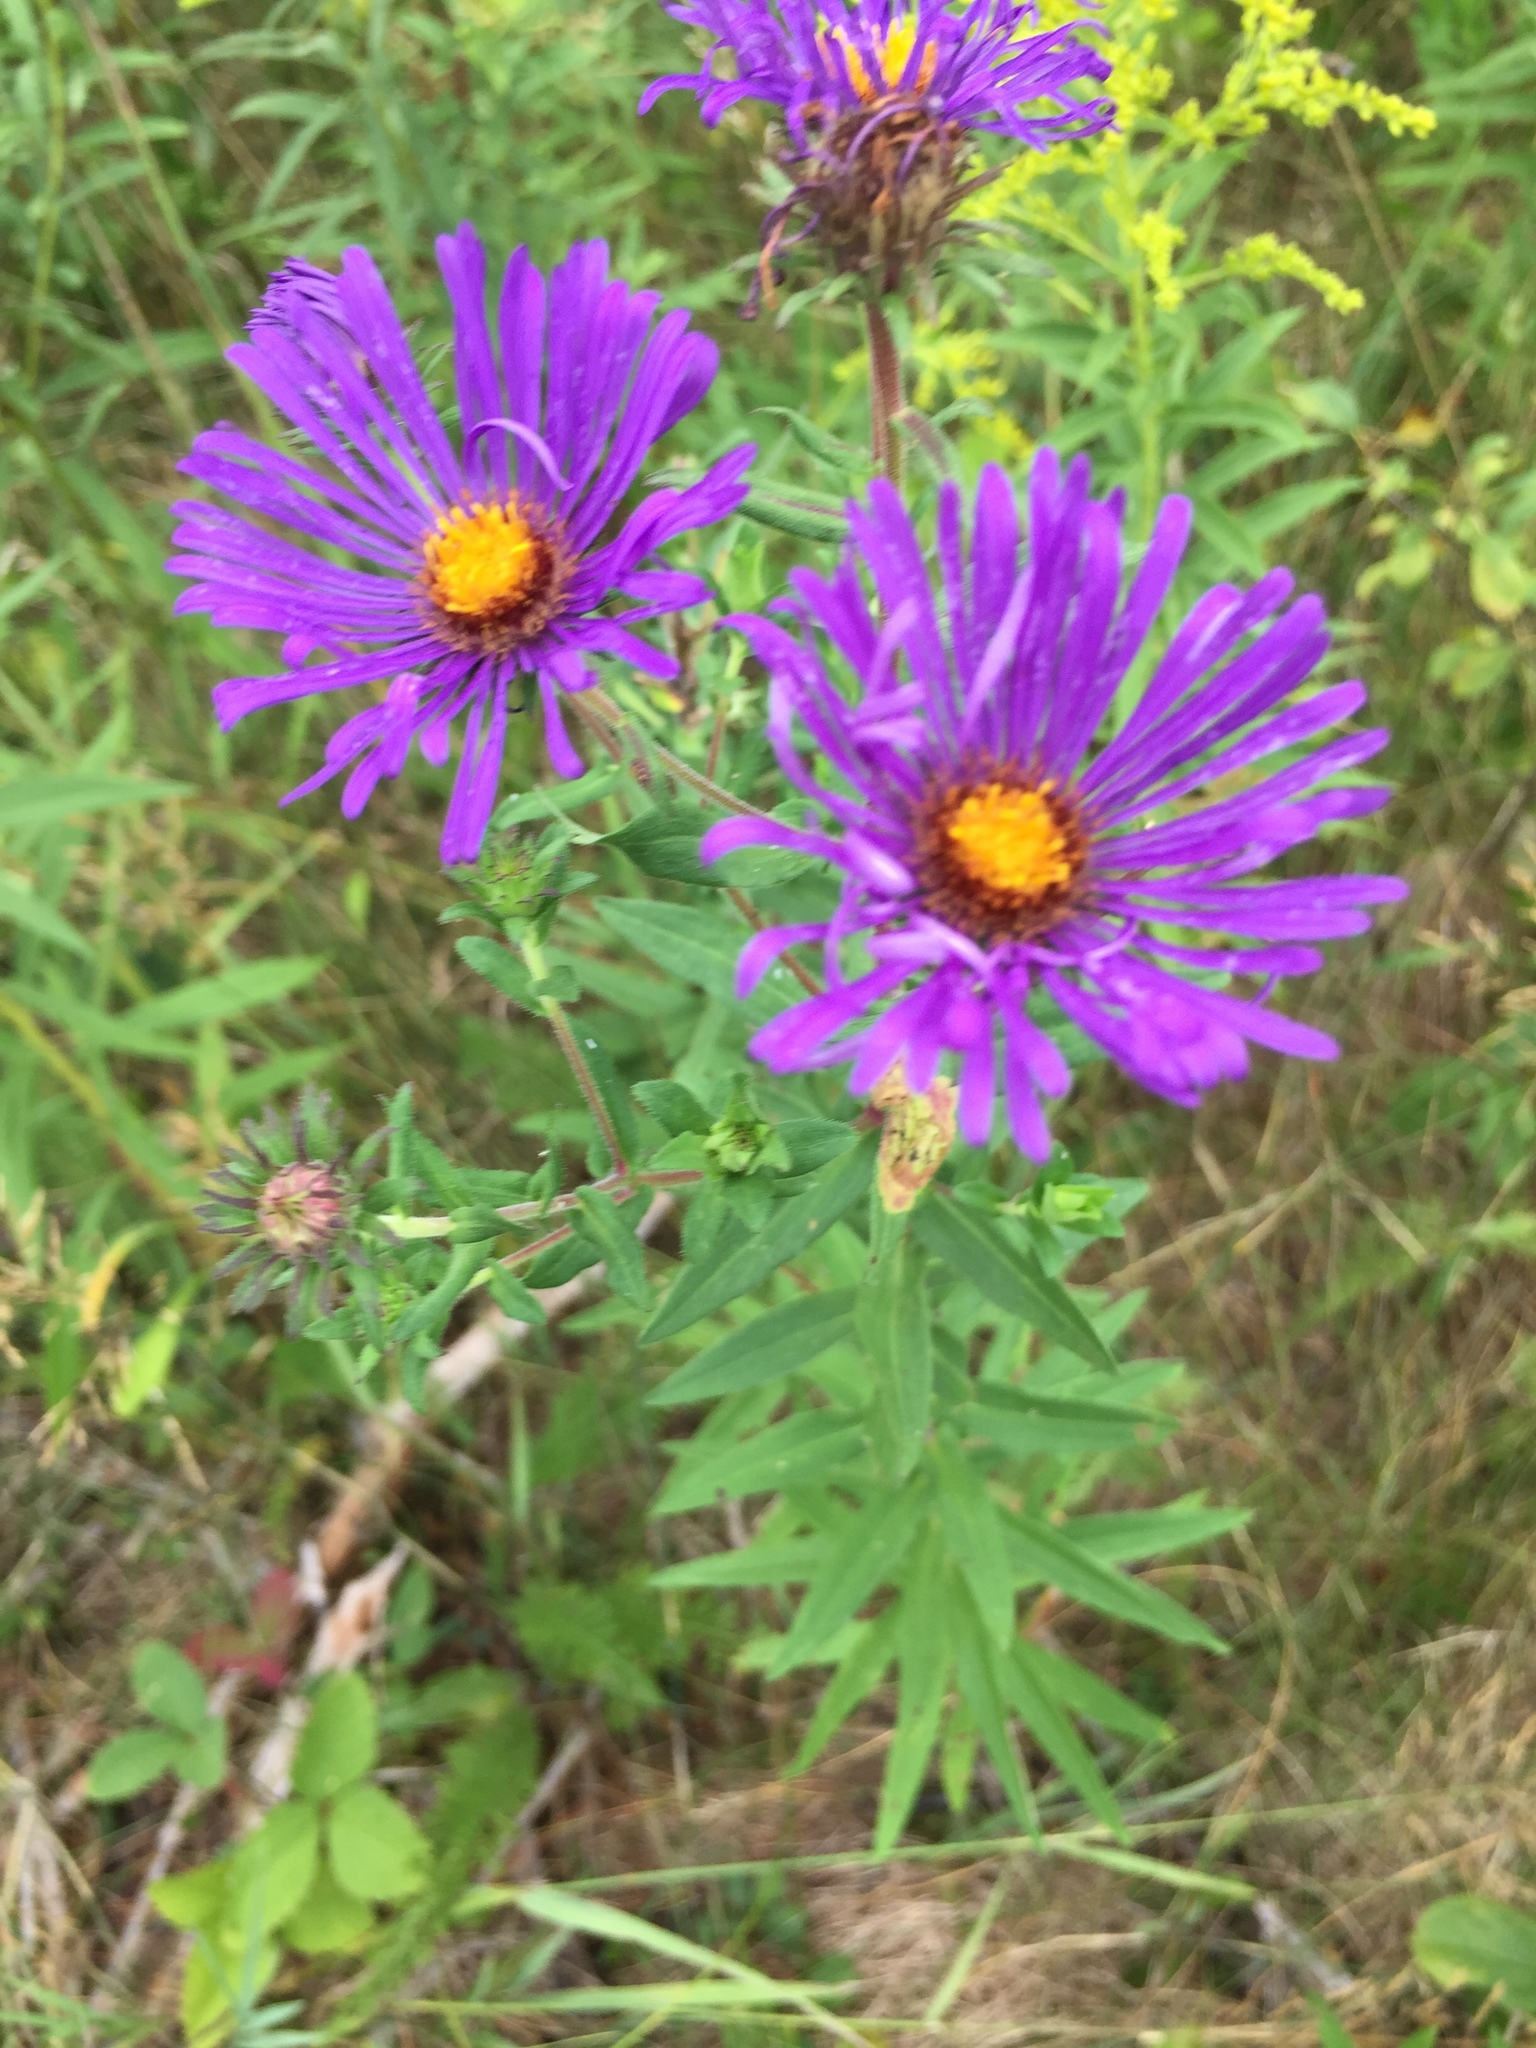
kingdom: Plantae
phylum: Tracheophyta
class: Magnoliopsida
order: Asterales
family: Asteraceae
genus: Symphyotrichum
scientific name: Symphyotrichum novae-angliae
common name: Michaelmas daisy
